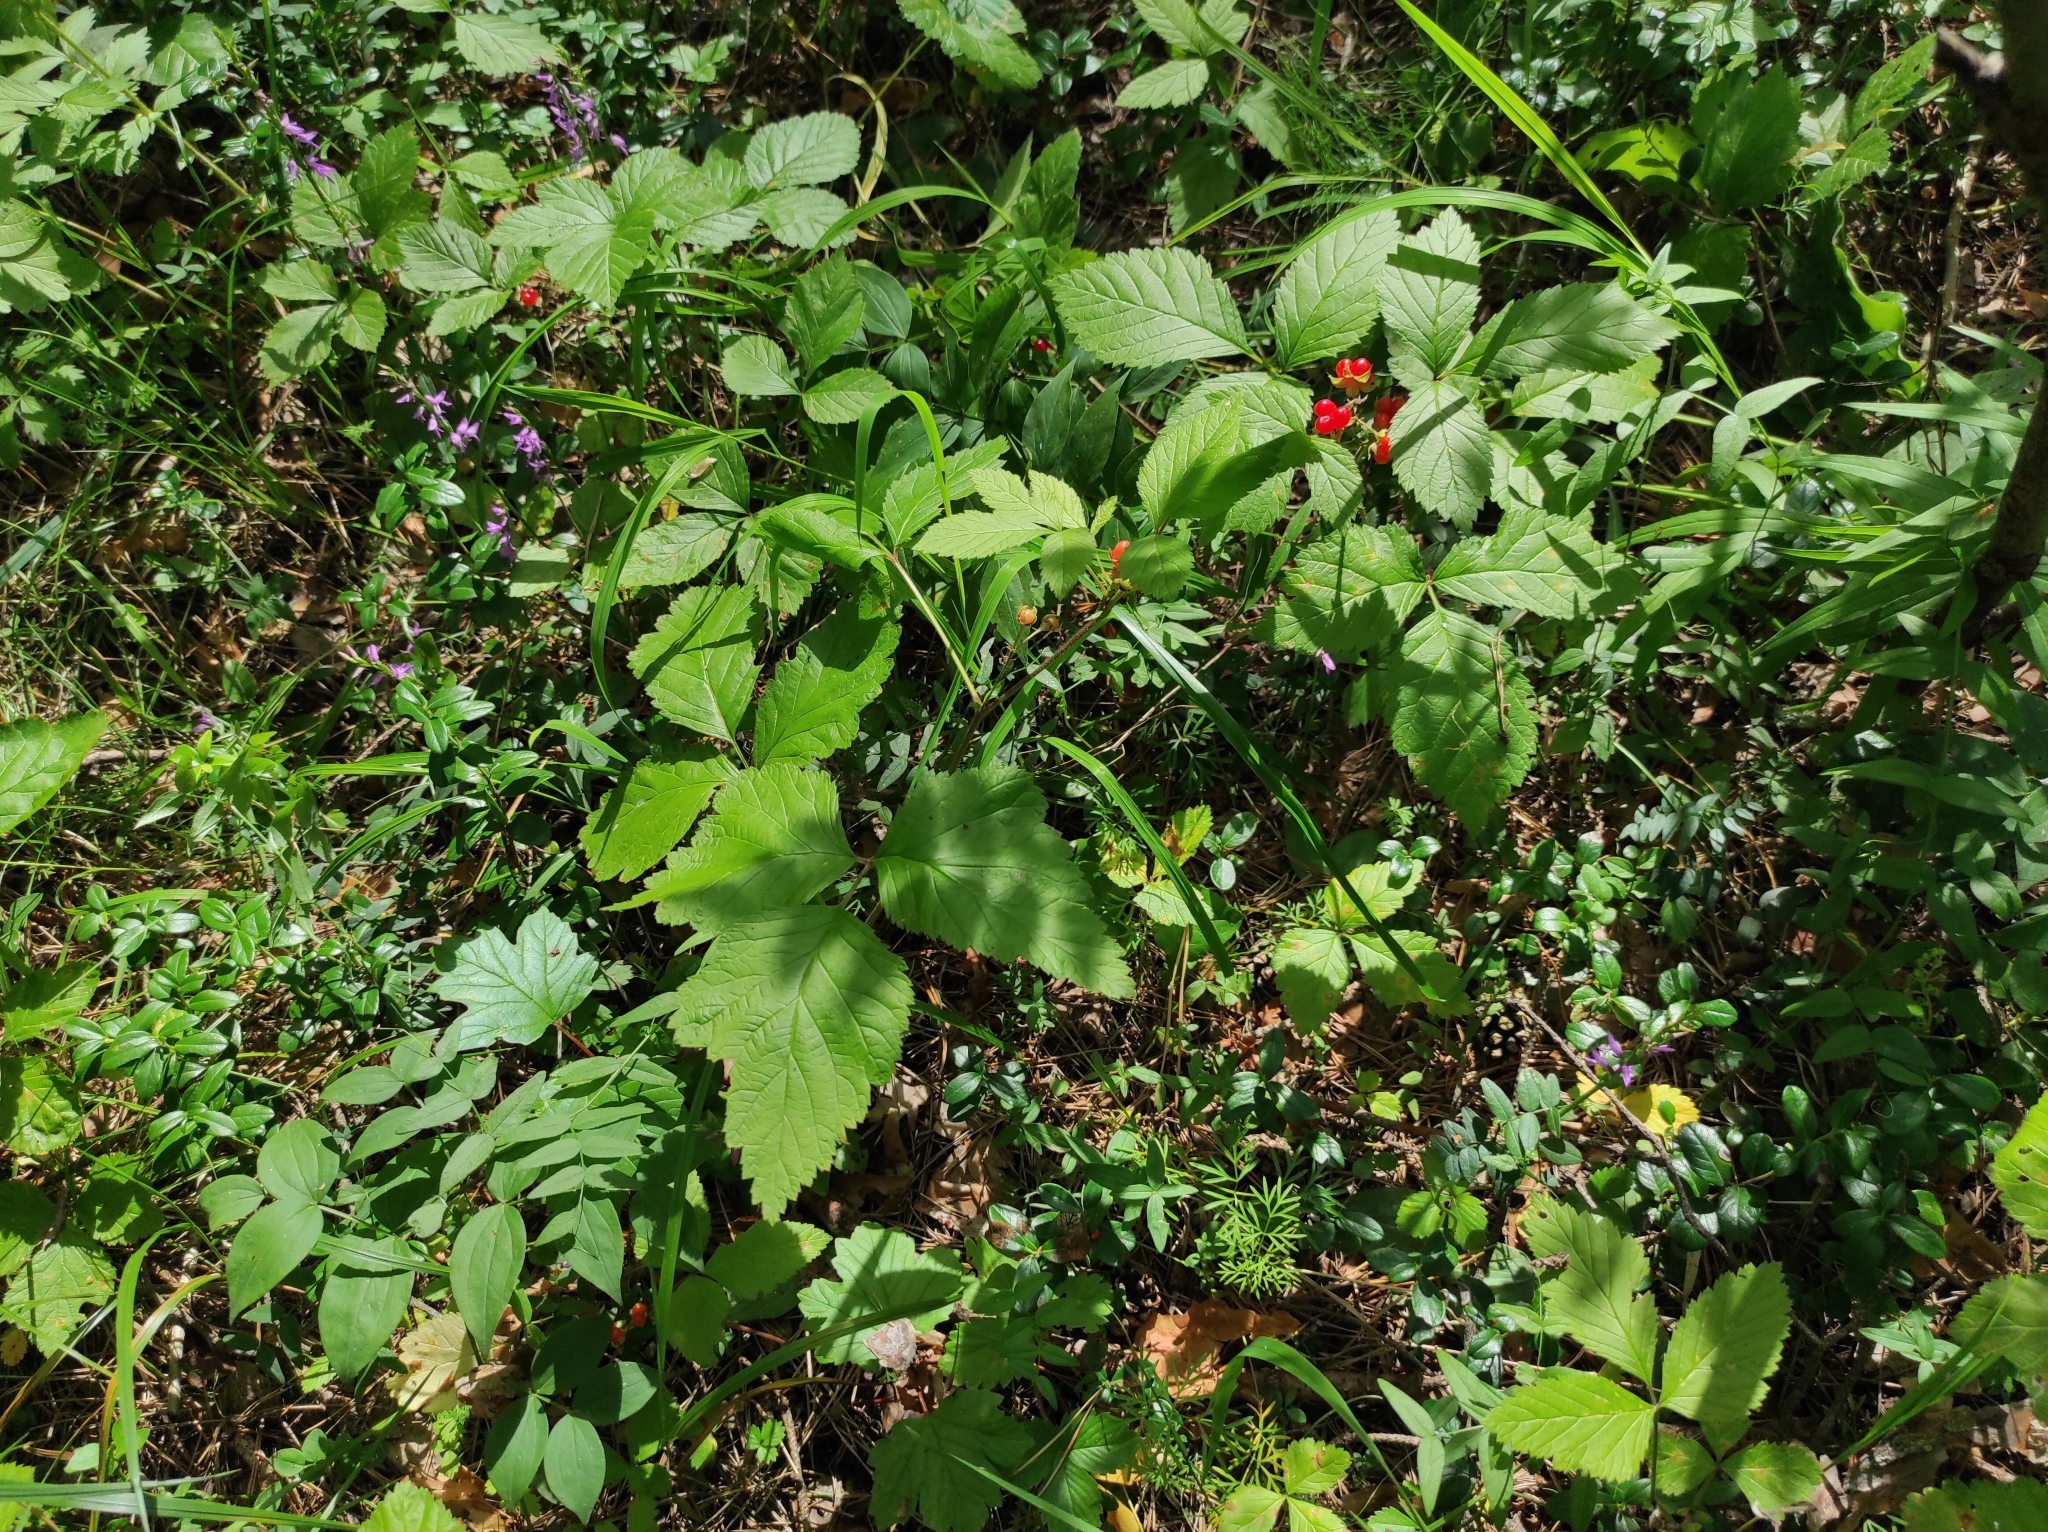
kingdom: Plantae
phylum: Tracheophyta
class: Magnoliopsida
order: Ericales
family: Ericaceae
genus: Vaccinium
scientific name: Vaccinium vitis-idaea
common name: Cowberry
